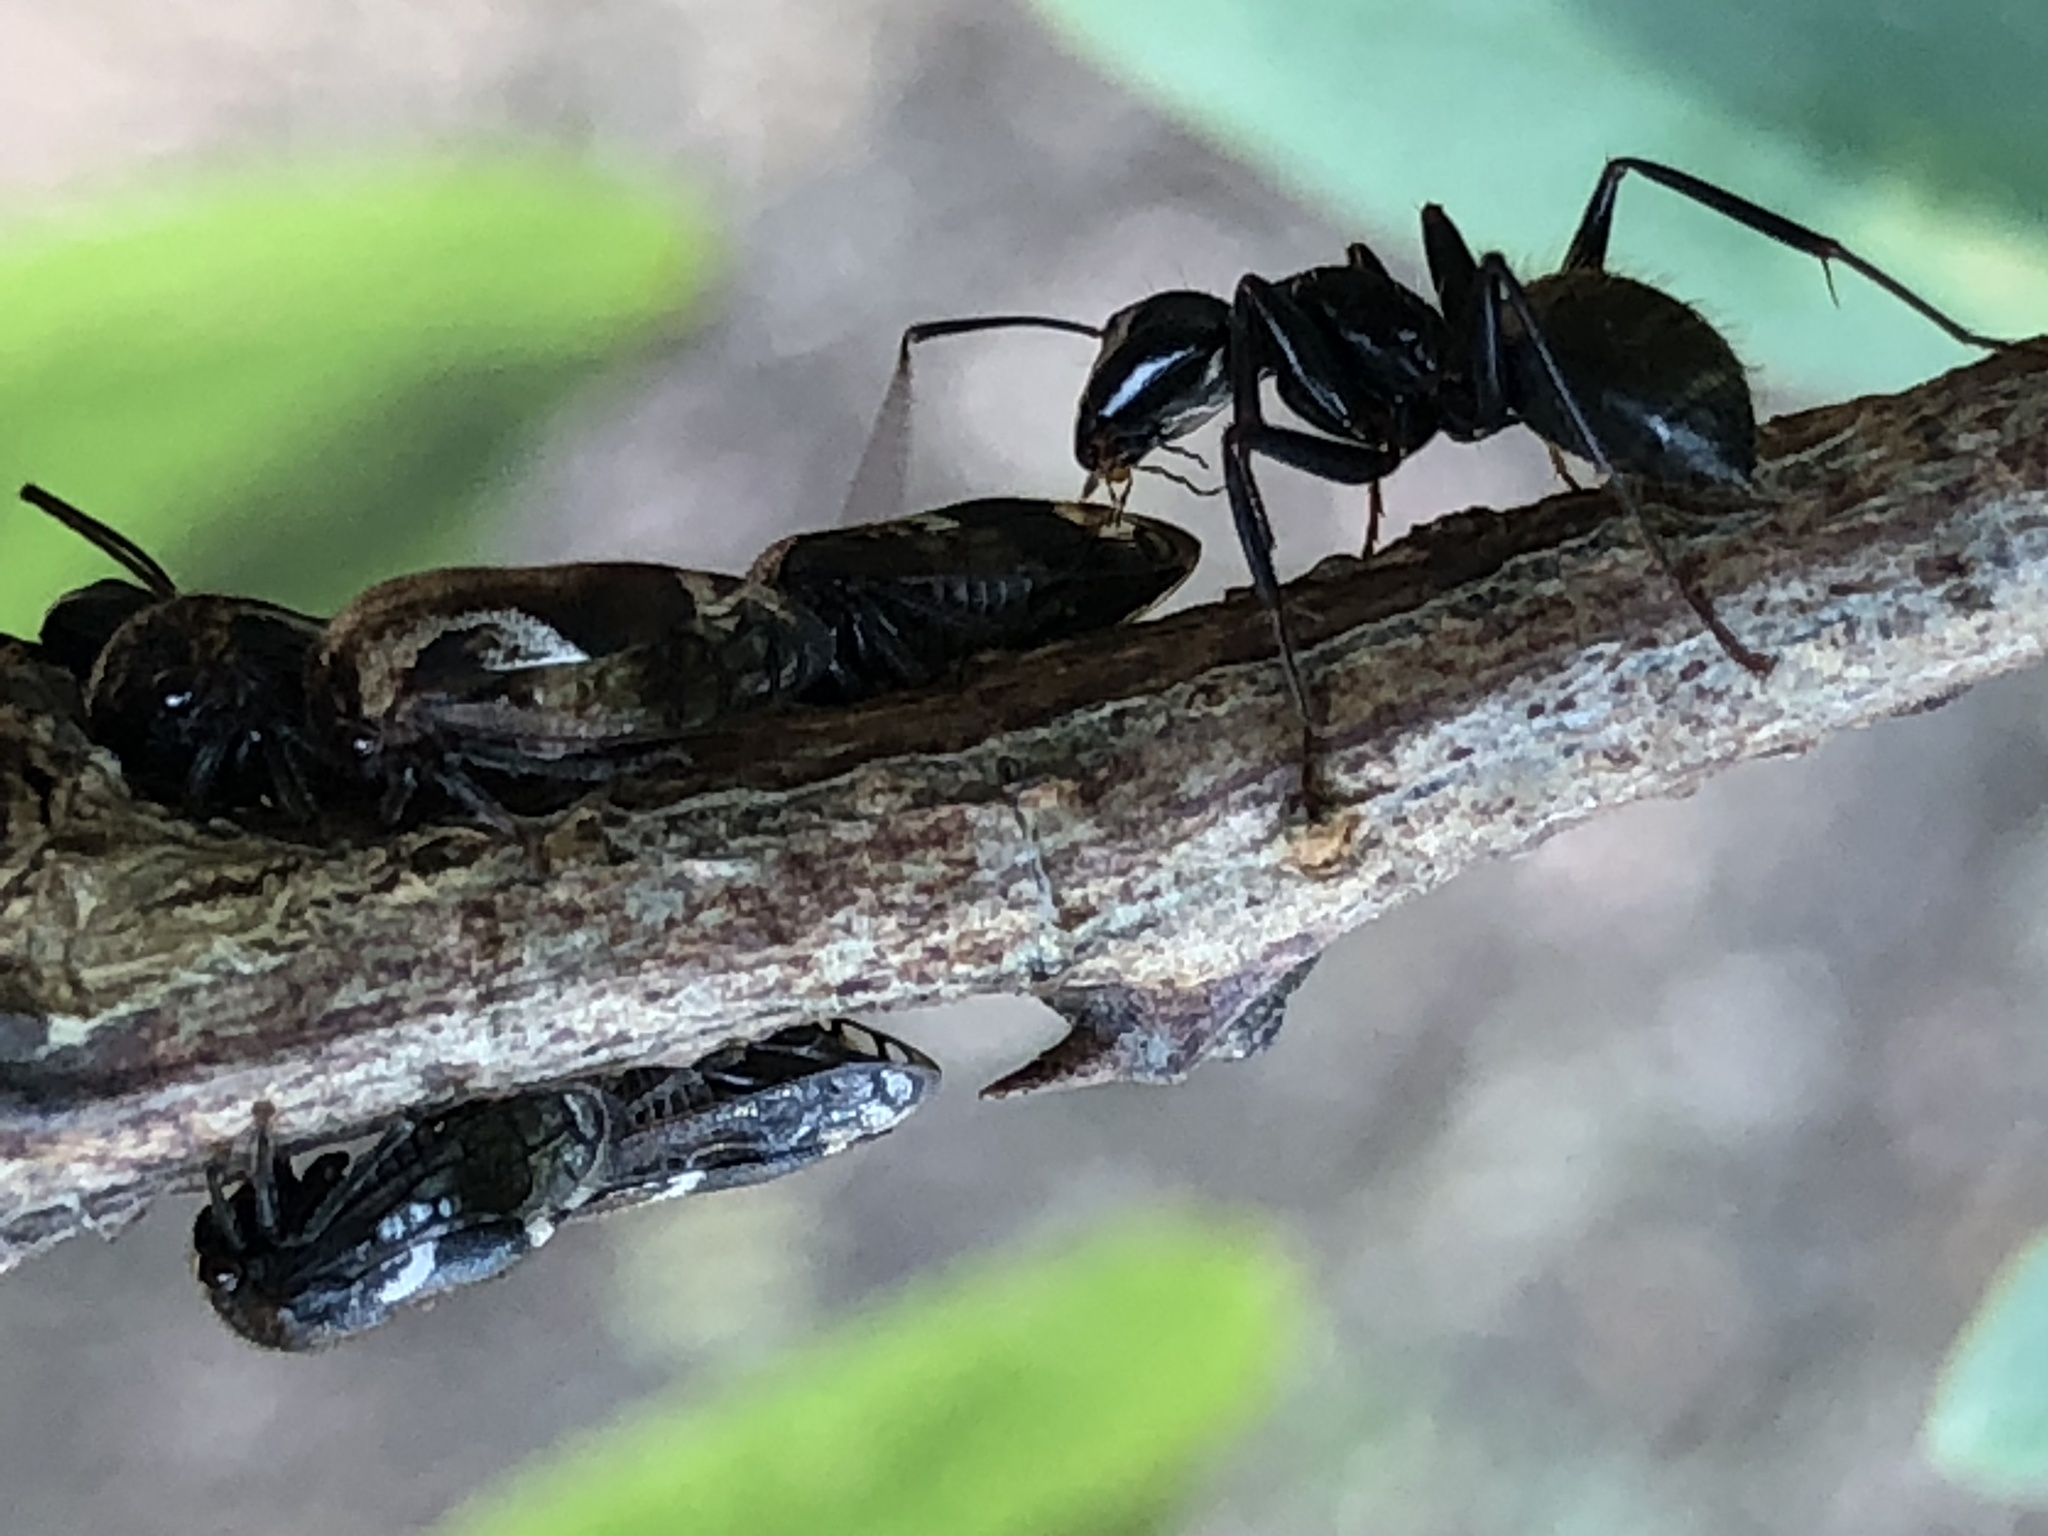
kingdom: Animalia
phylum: Arthropoda
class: Insecta
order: Hymenoptera
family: Formicidae
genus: Camponotus
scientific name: Camponotus pennsylvanicus
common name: Black carpenter ant
